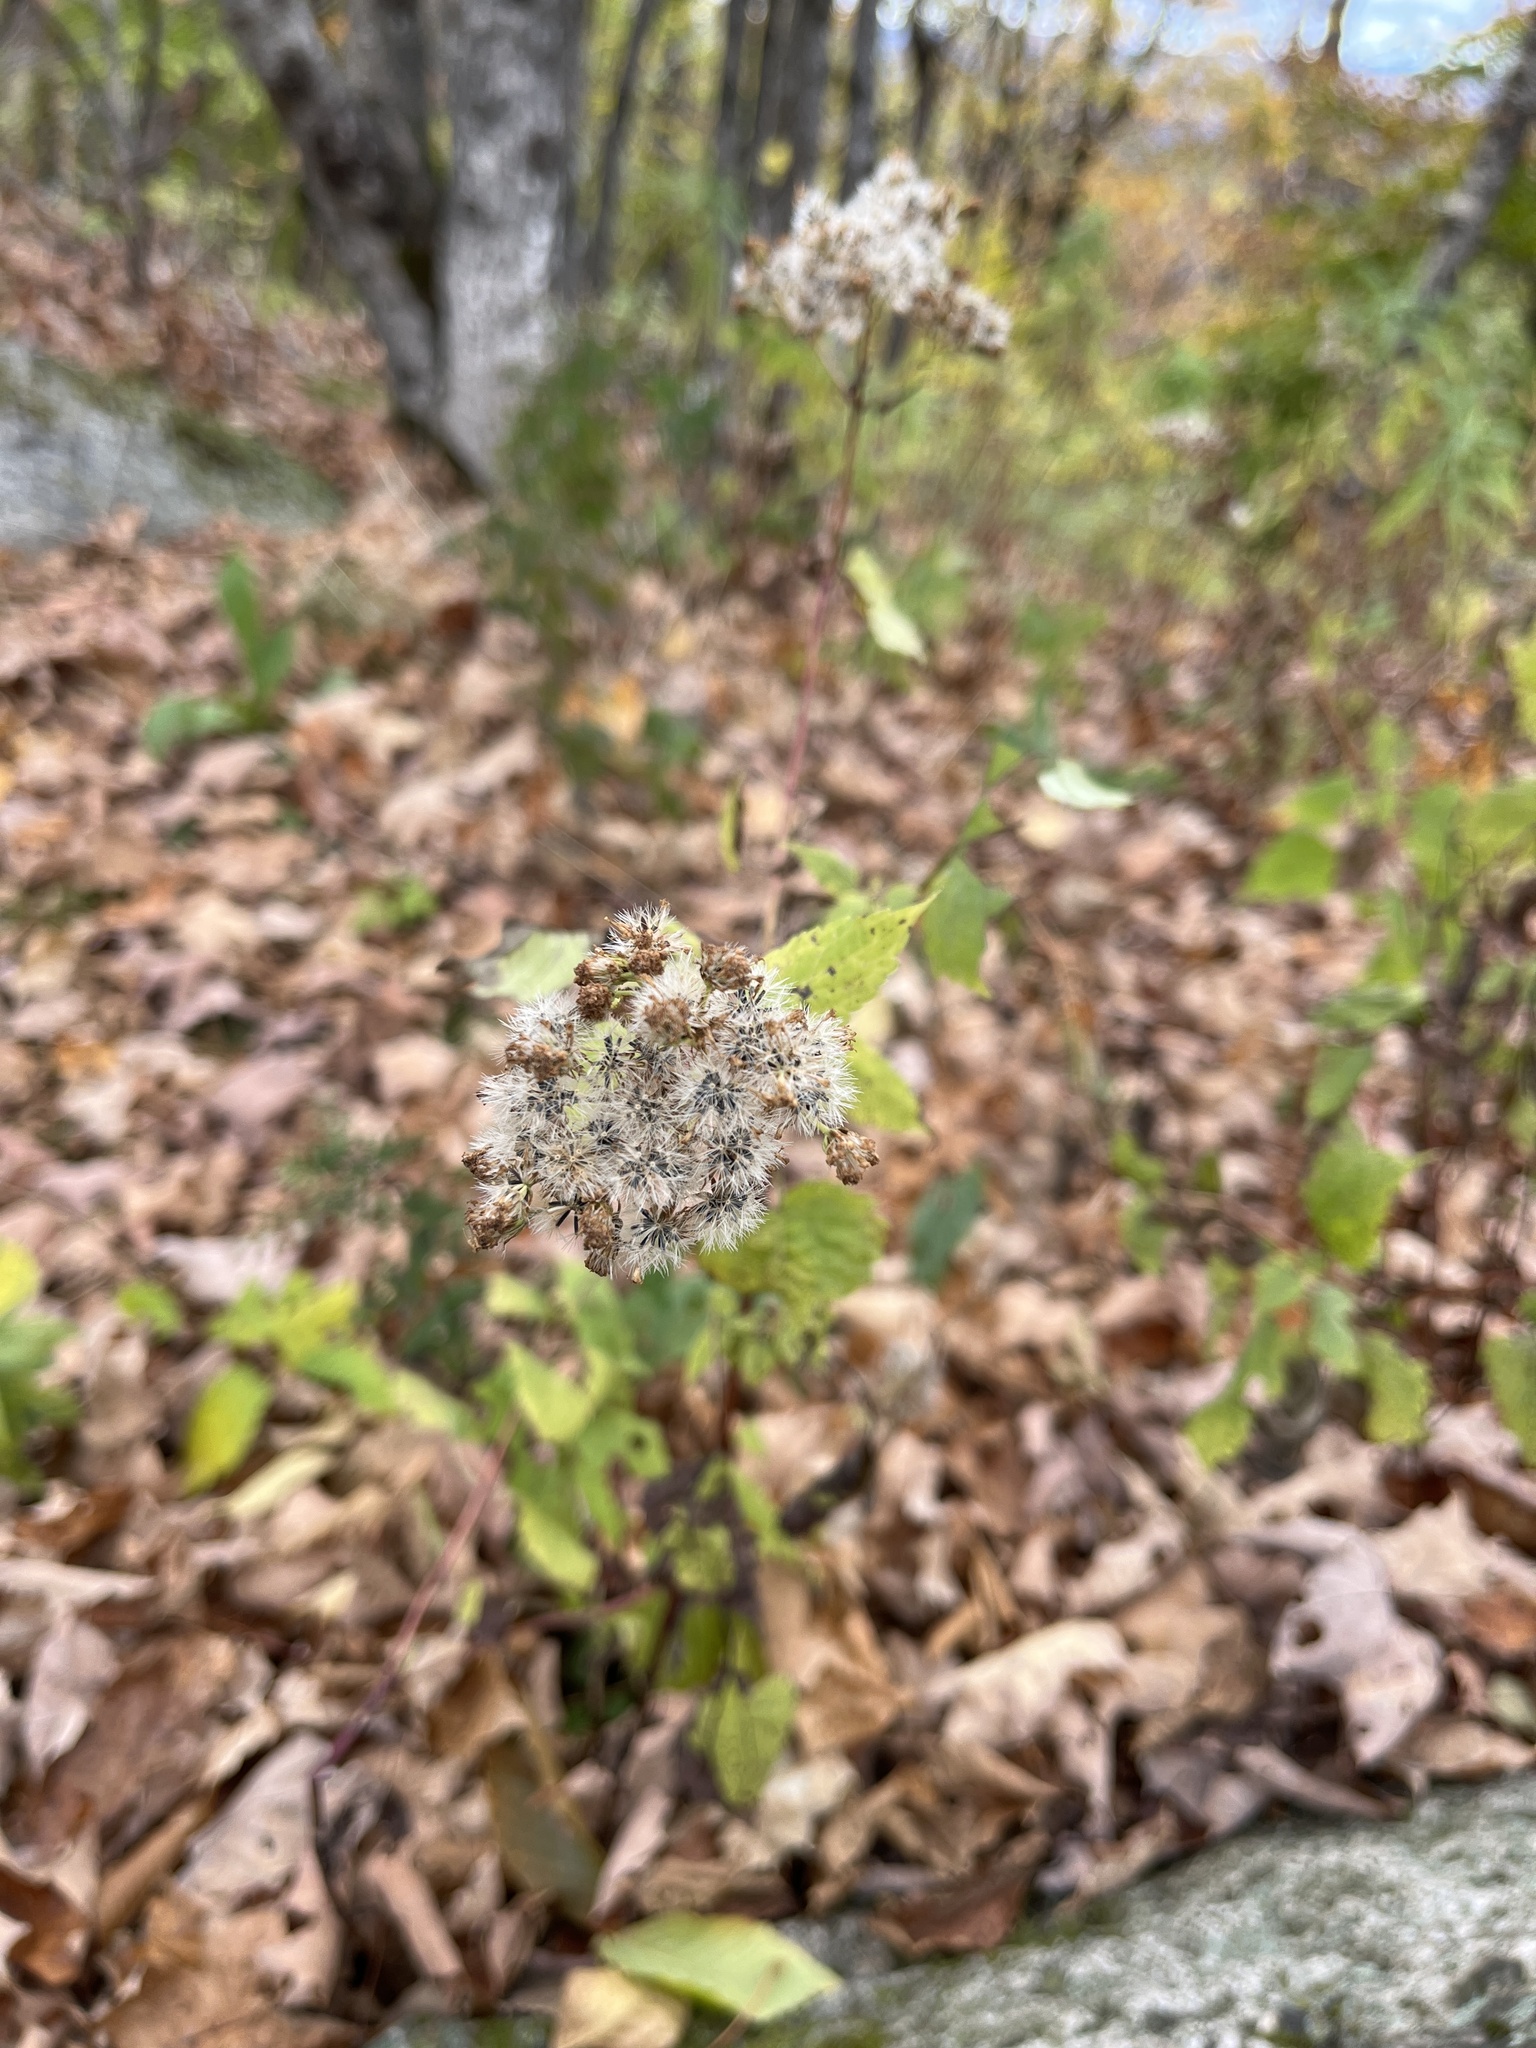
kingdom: Plantae
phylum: Tracheophyta
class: Magnoliopsida
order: Asterales
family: Asteraceae
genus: Ageratina
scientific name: Ageratina altissima
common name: White snakeroot
